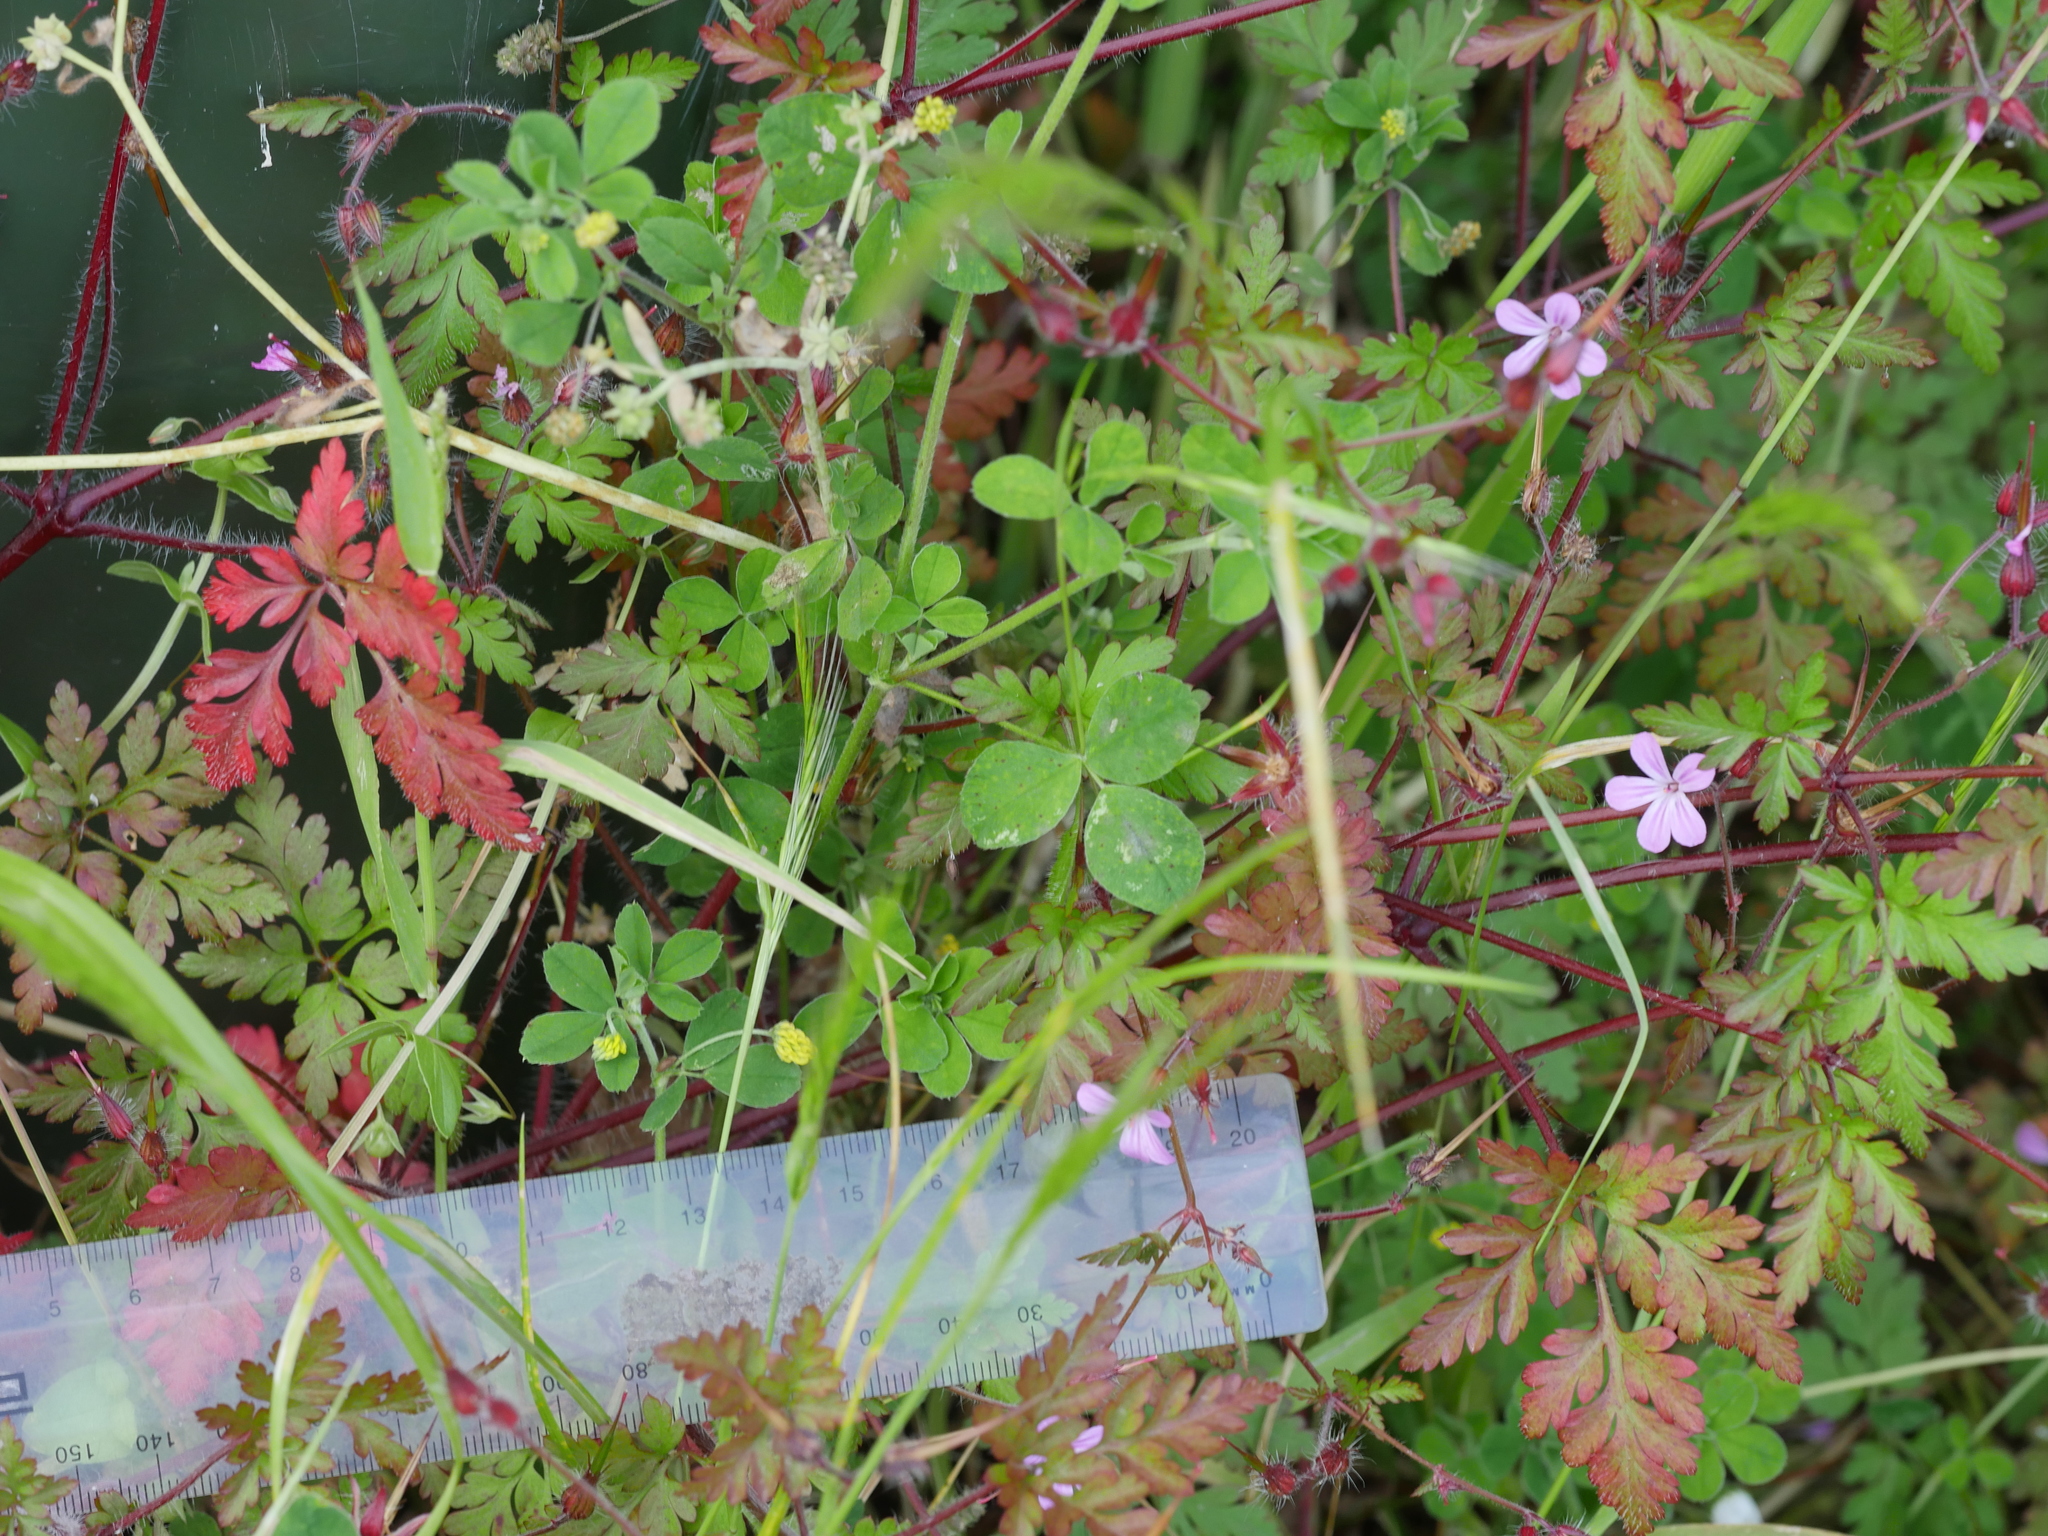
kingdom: Plantae
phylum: Tracheophyta
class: Magnoliopsida
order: Geraniales
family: Geraniaceae
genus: Geranium
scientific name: Geranium robertianum
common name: Herb-robert
